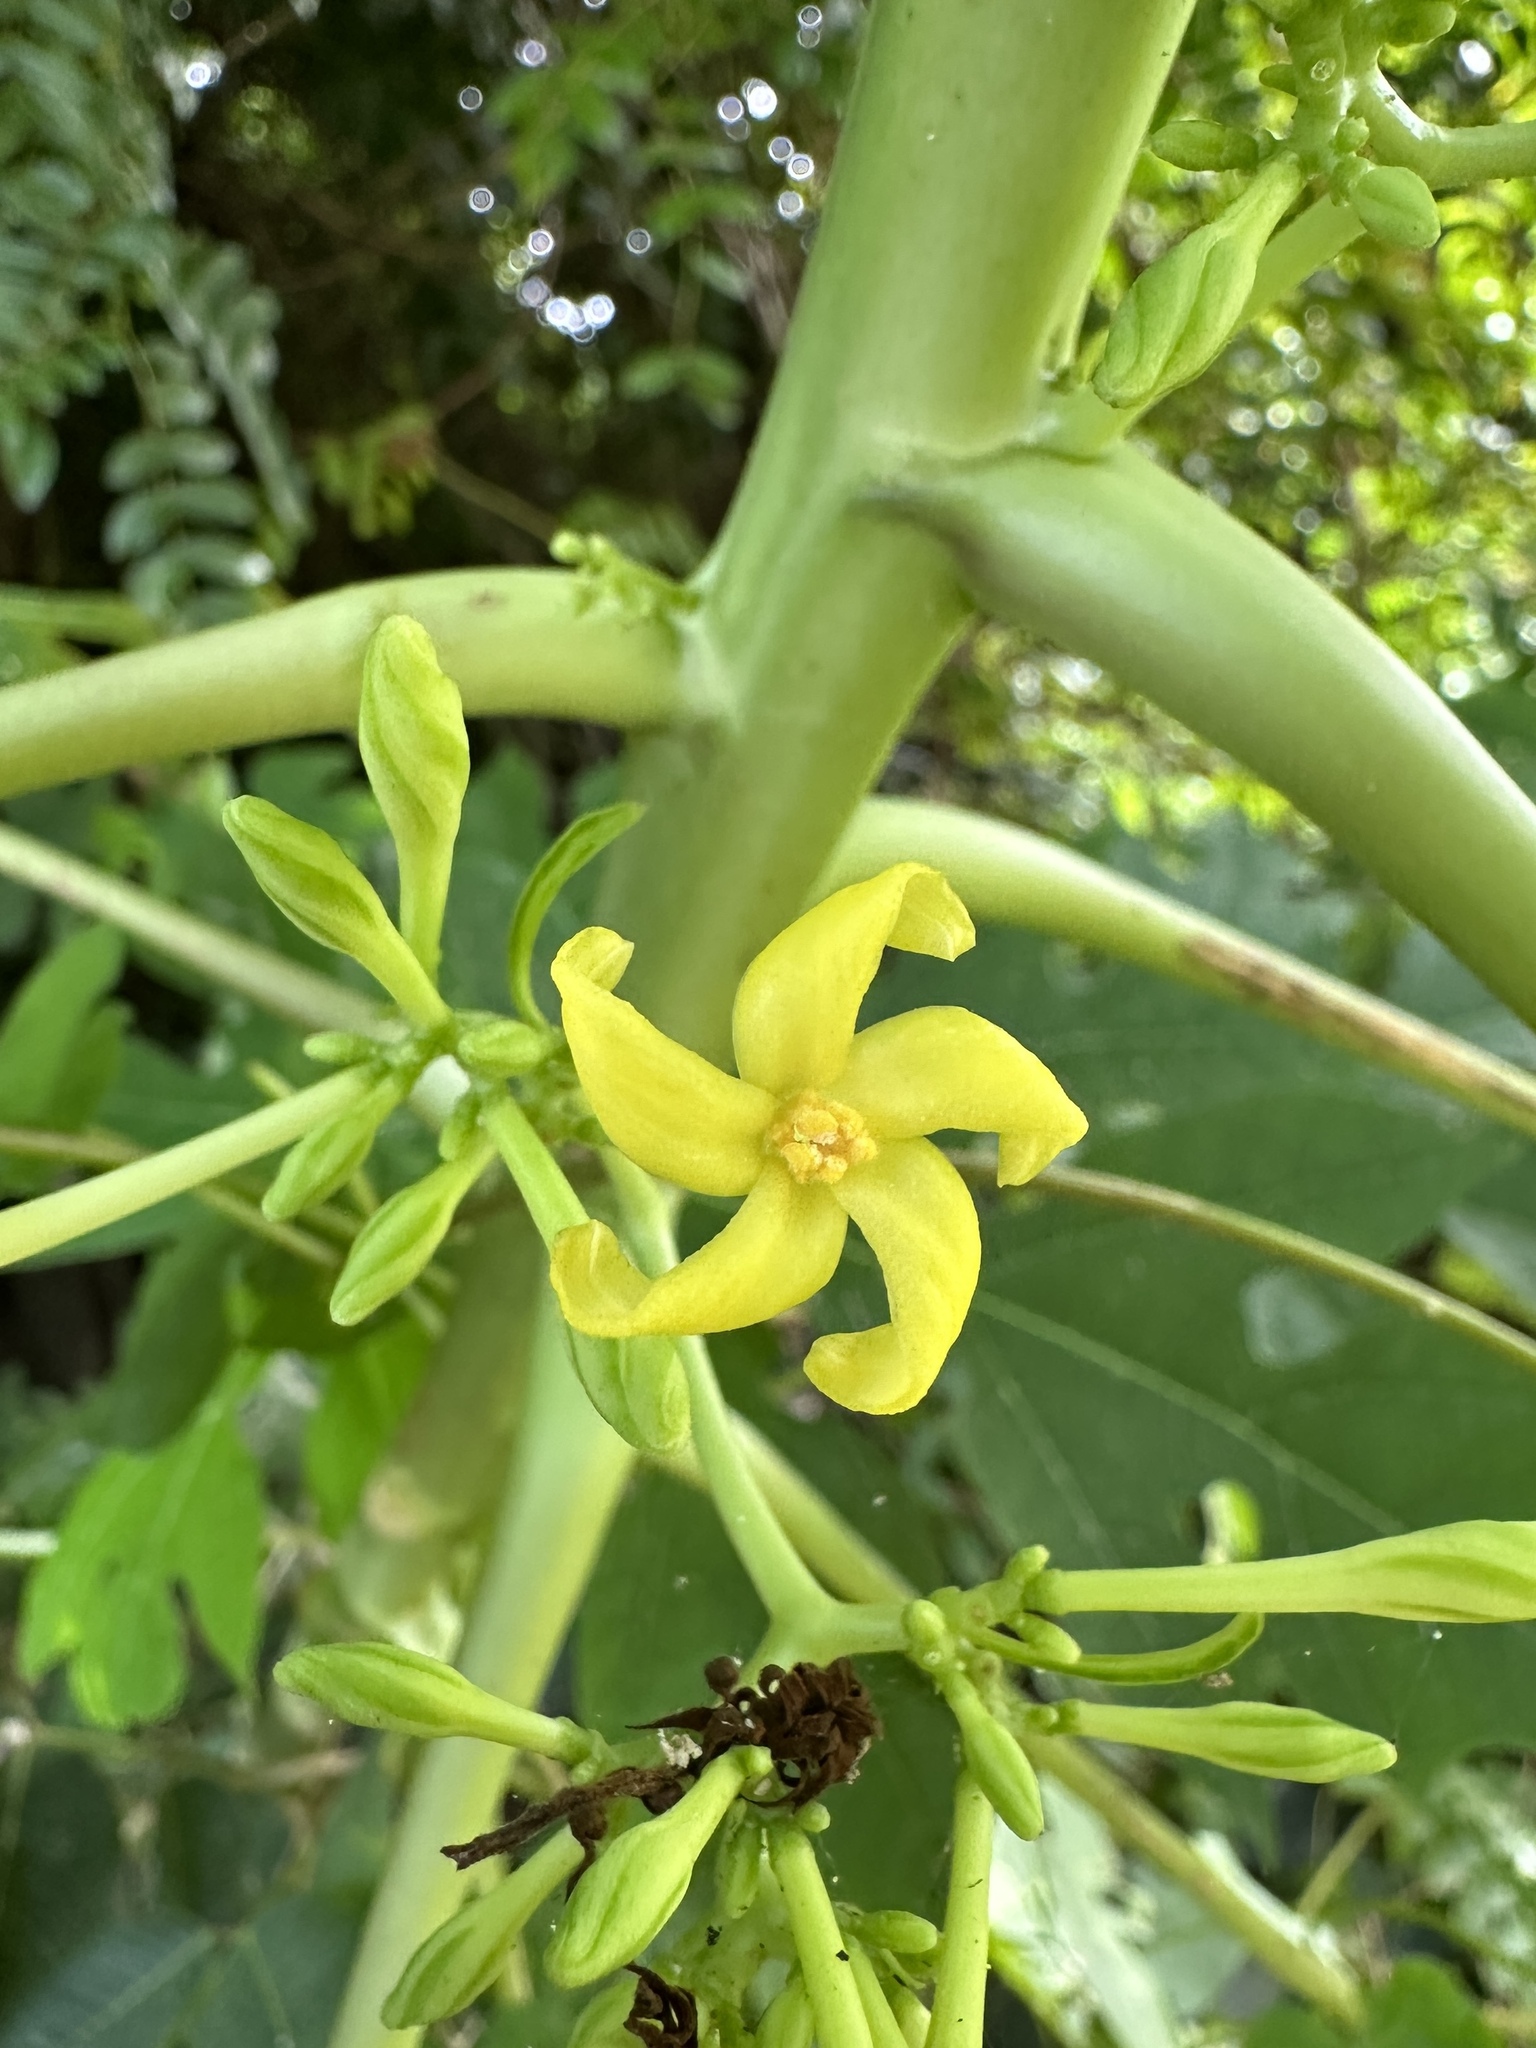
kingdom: Plantae
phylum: Tracheophyta
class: Magnoliopsida
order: Brassicales
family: Caricaceae
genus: Carica
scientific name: Carica papaya
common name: Papaya
